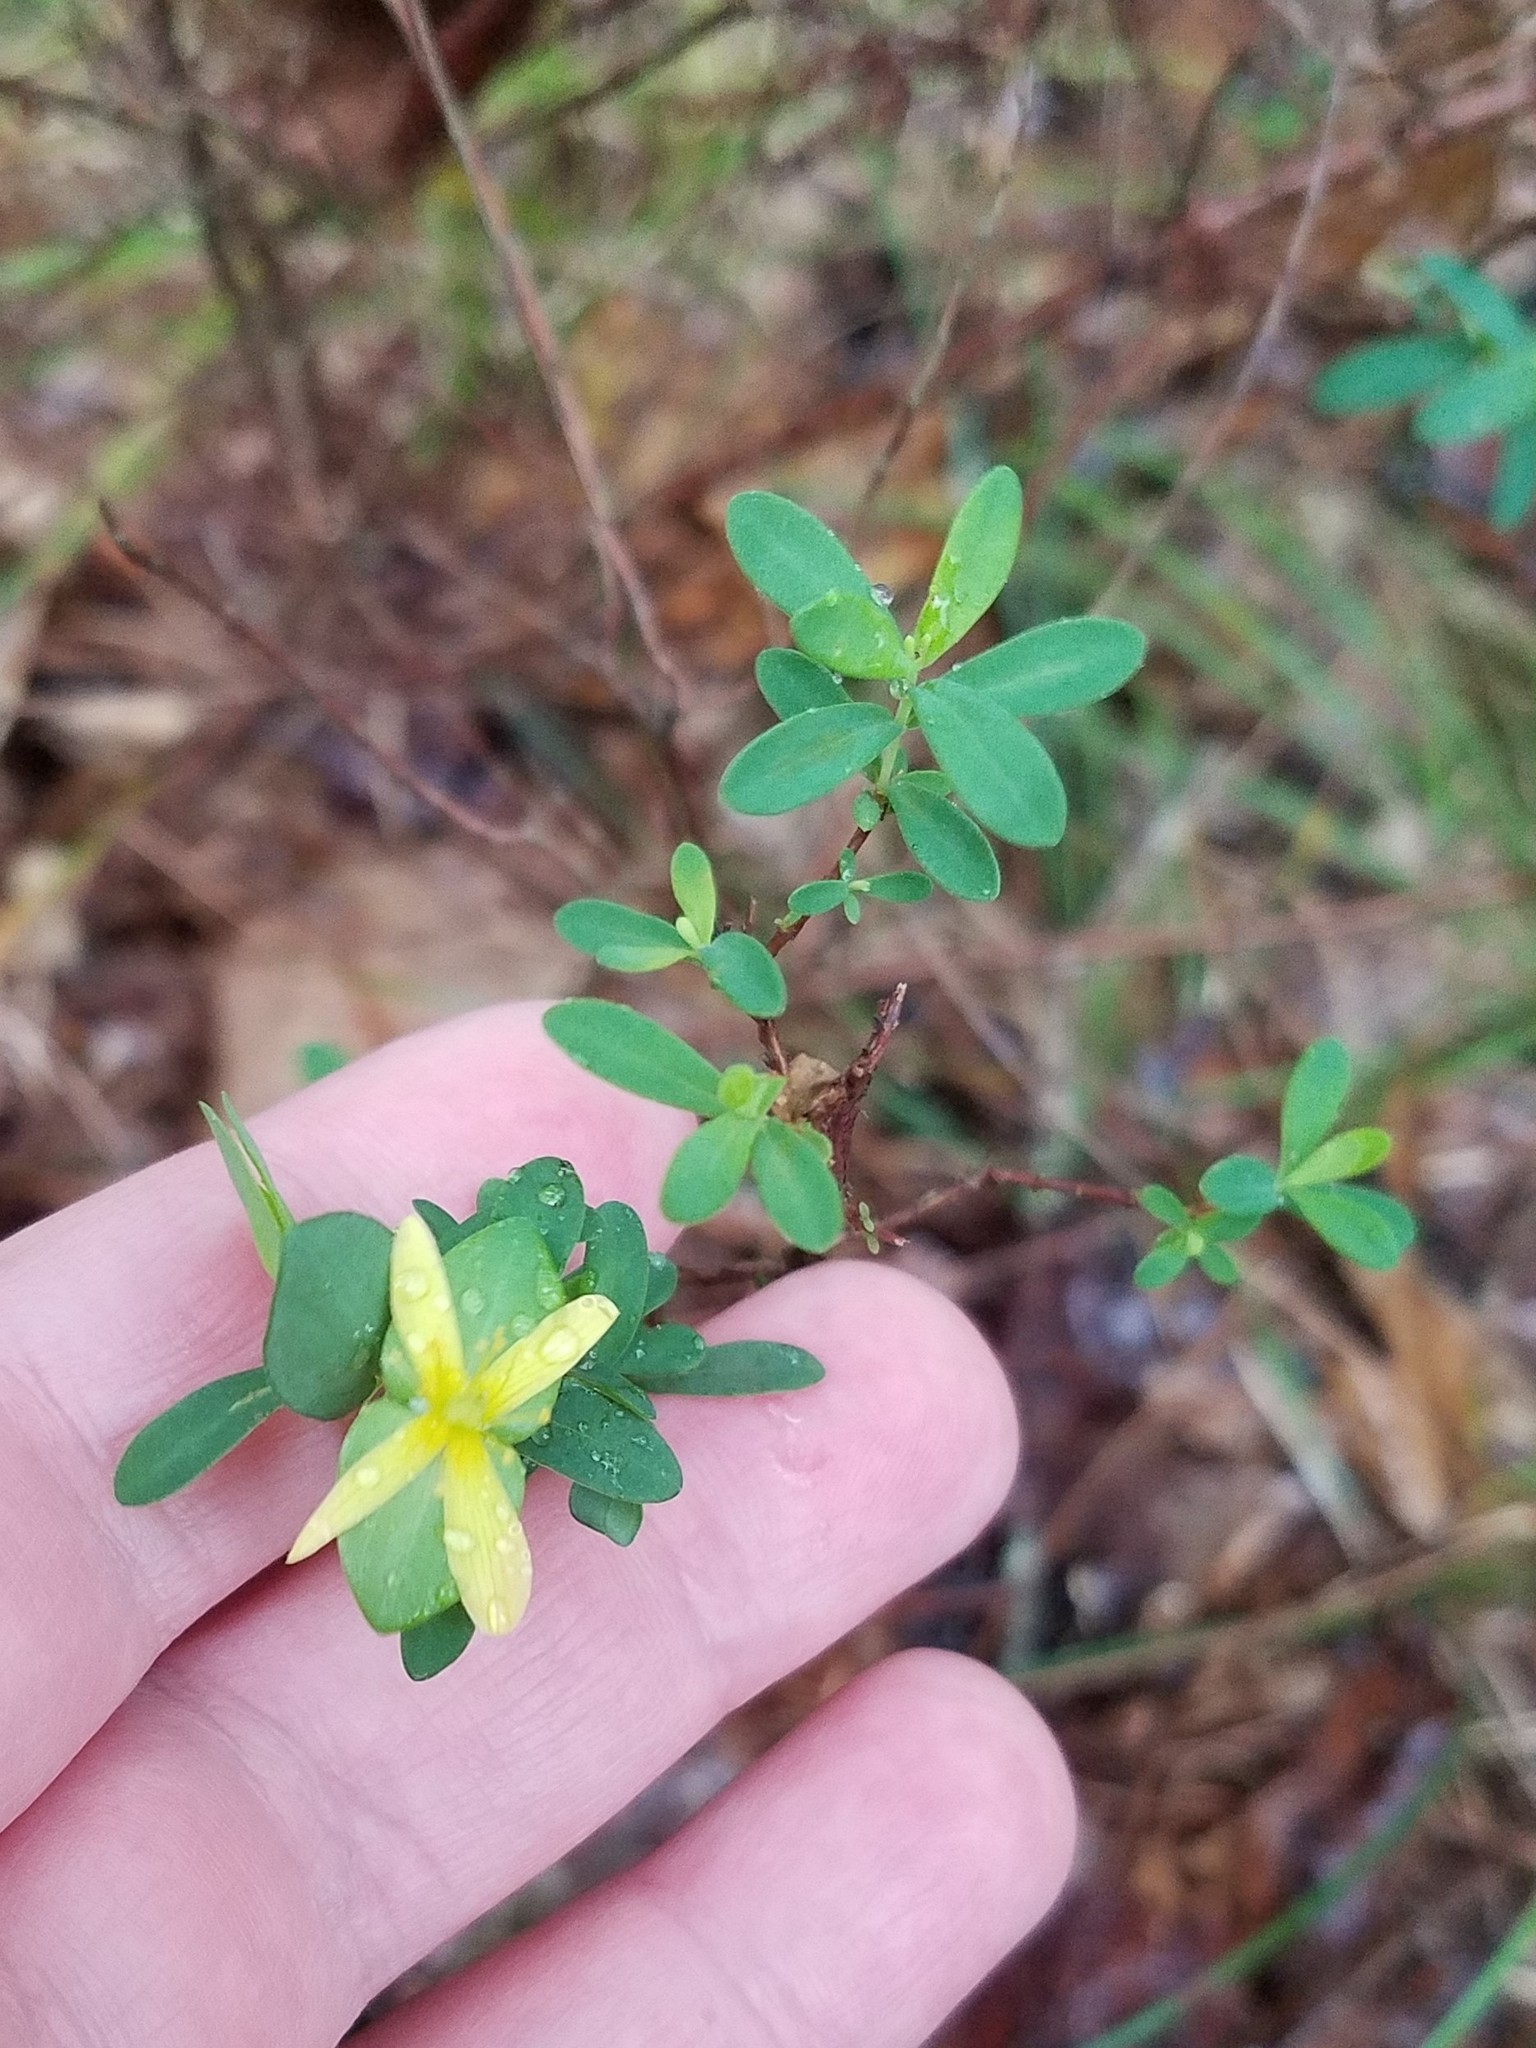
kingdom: Plantae
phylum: Tracheophyta
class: Magnoliopsida
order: Malpighiales
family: Hypericaceae
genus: Hypericum
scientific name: Hypericum hypericoides
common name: St. andrew's cross
